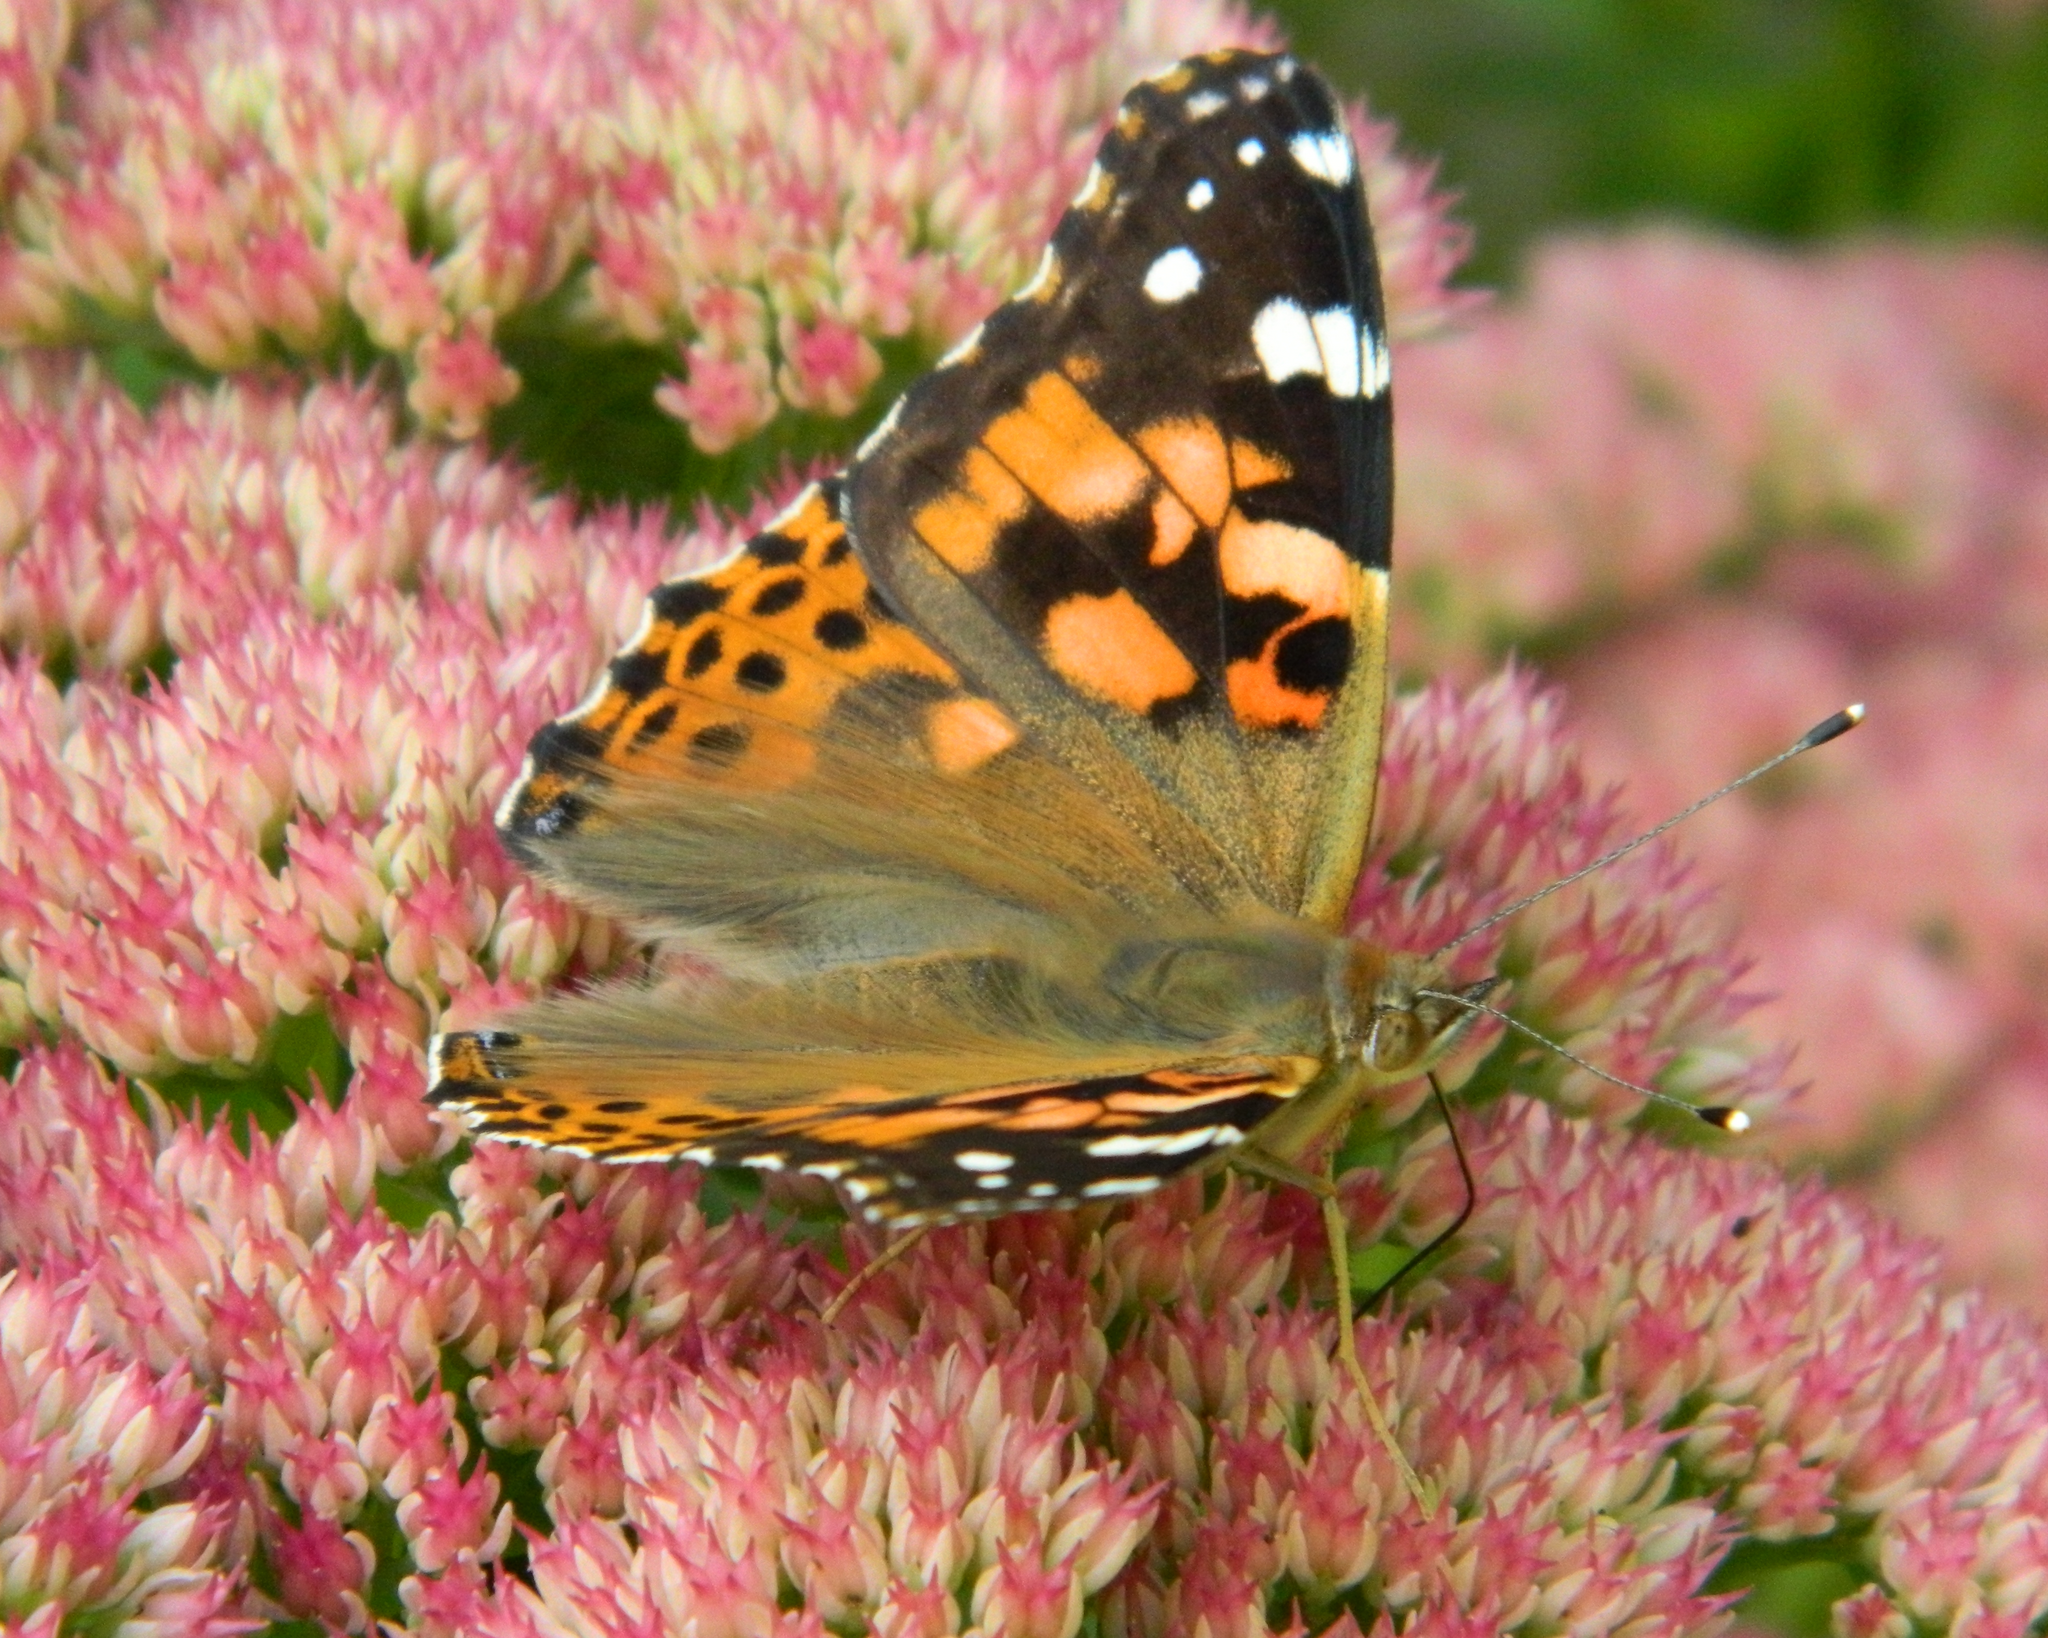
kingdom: Animalia
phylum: Arthropoda
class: Insecta
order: Lepidoptera
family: Nymphalidae
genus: Vanessa
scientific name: Vanessa cardui
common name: Painted lady
